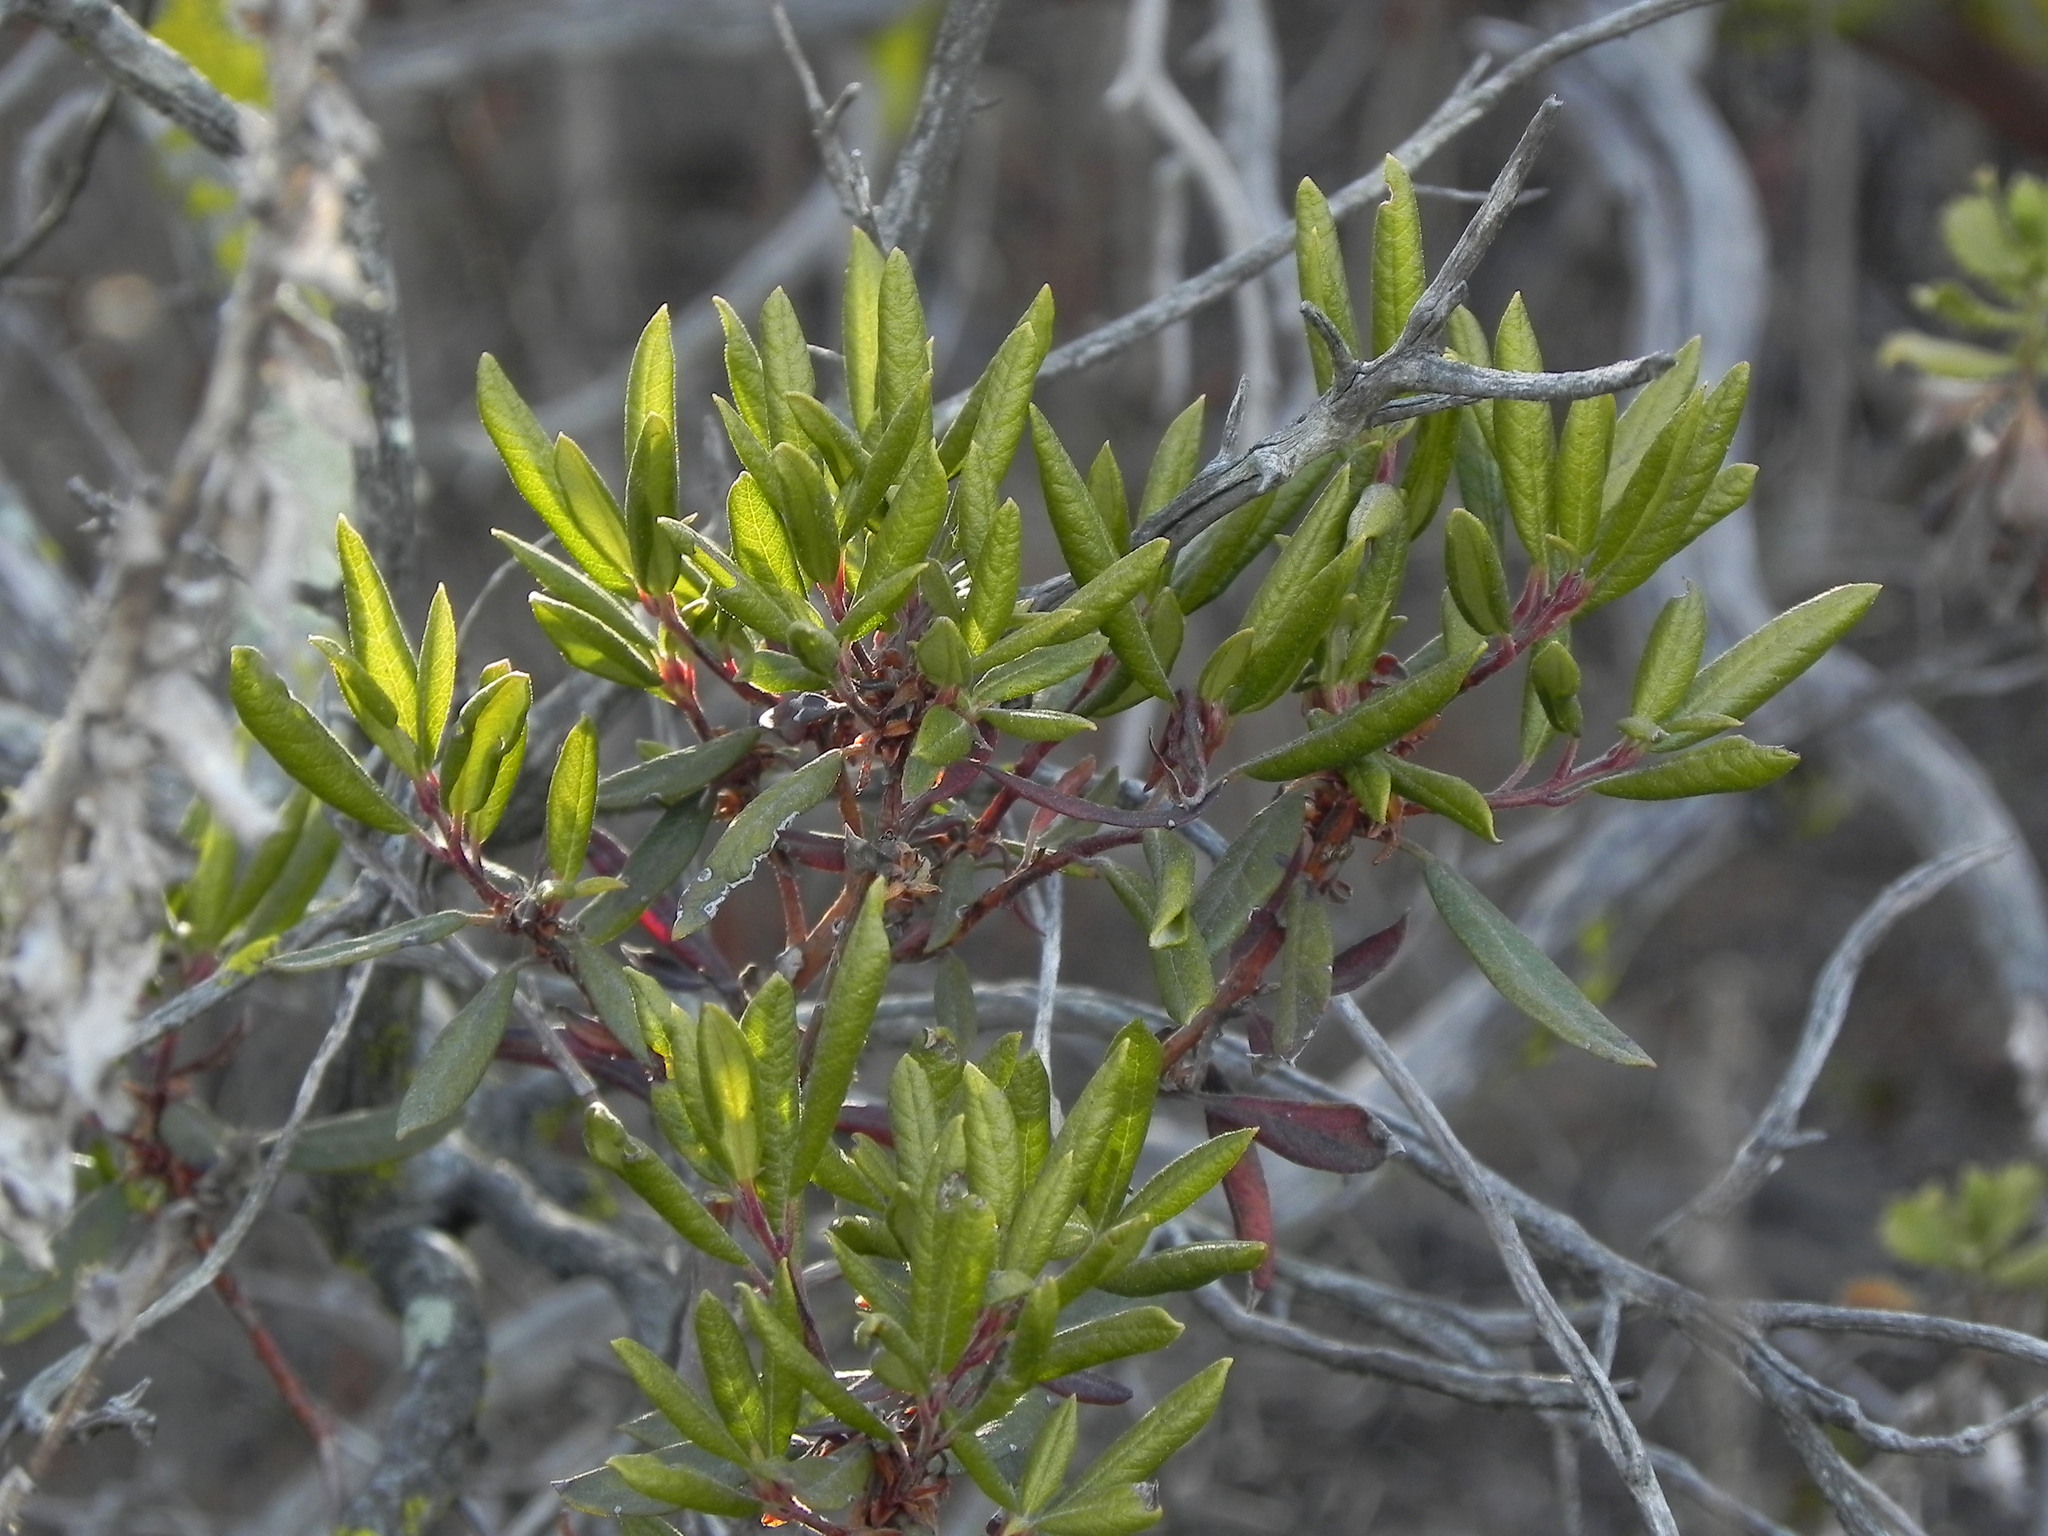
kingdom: Plantae
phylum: Tracheophyta
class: Magnoliopsida
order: Ericales
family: Ericaceae
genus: Arctostaphylos
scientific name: Arctostaphylos bicolor
